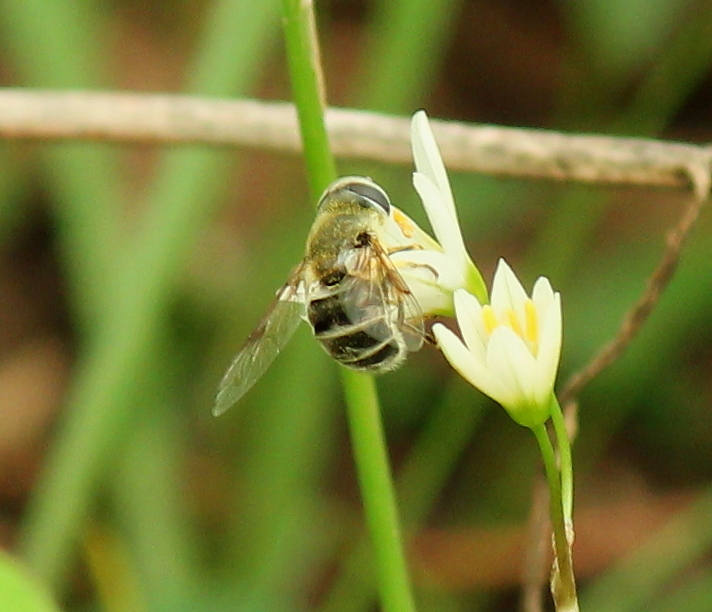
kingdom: Animalia
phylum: Arthropoda
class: Insecta
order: Diptera
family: Syrphidae
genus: Eristalis
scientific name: Eristalis stipator
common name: Yellow-shouldered drone fly
